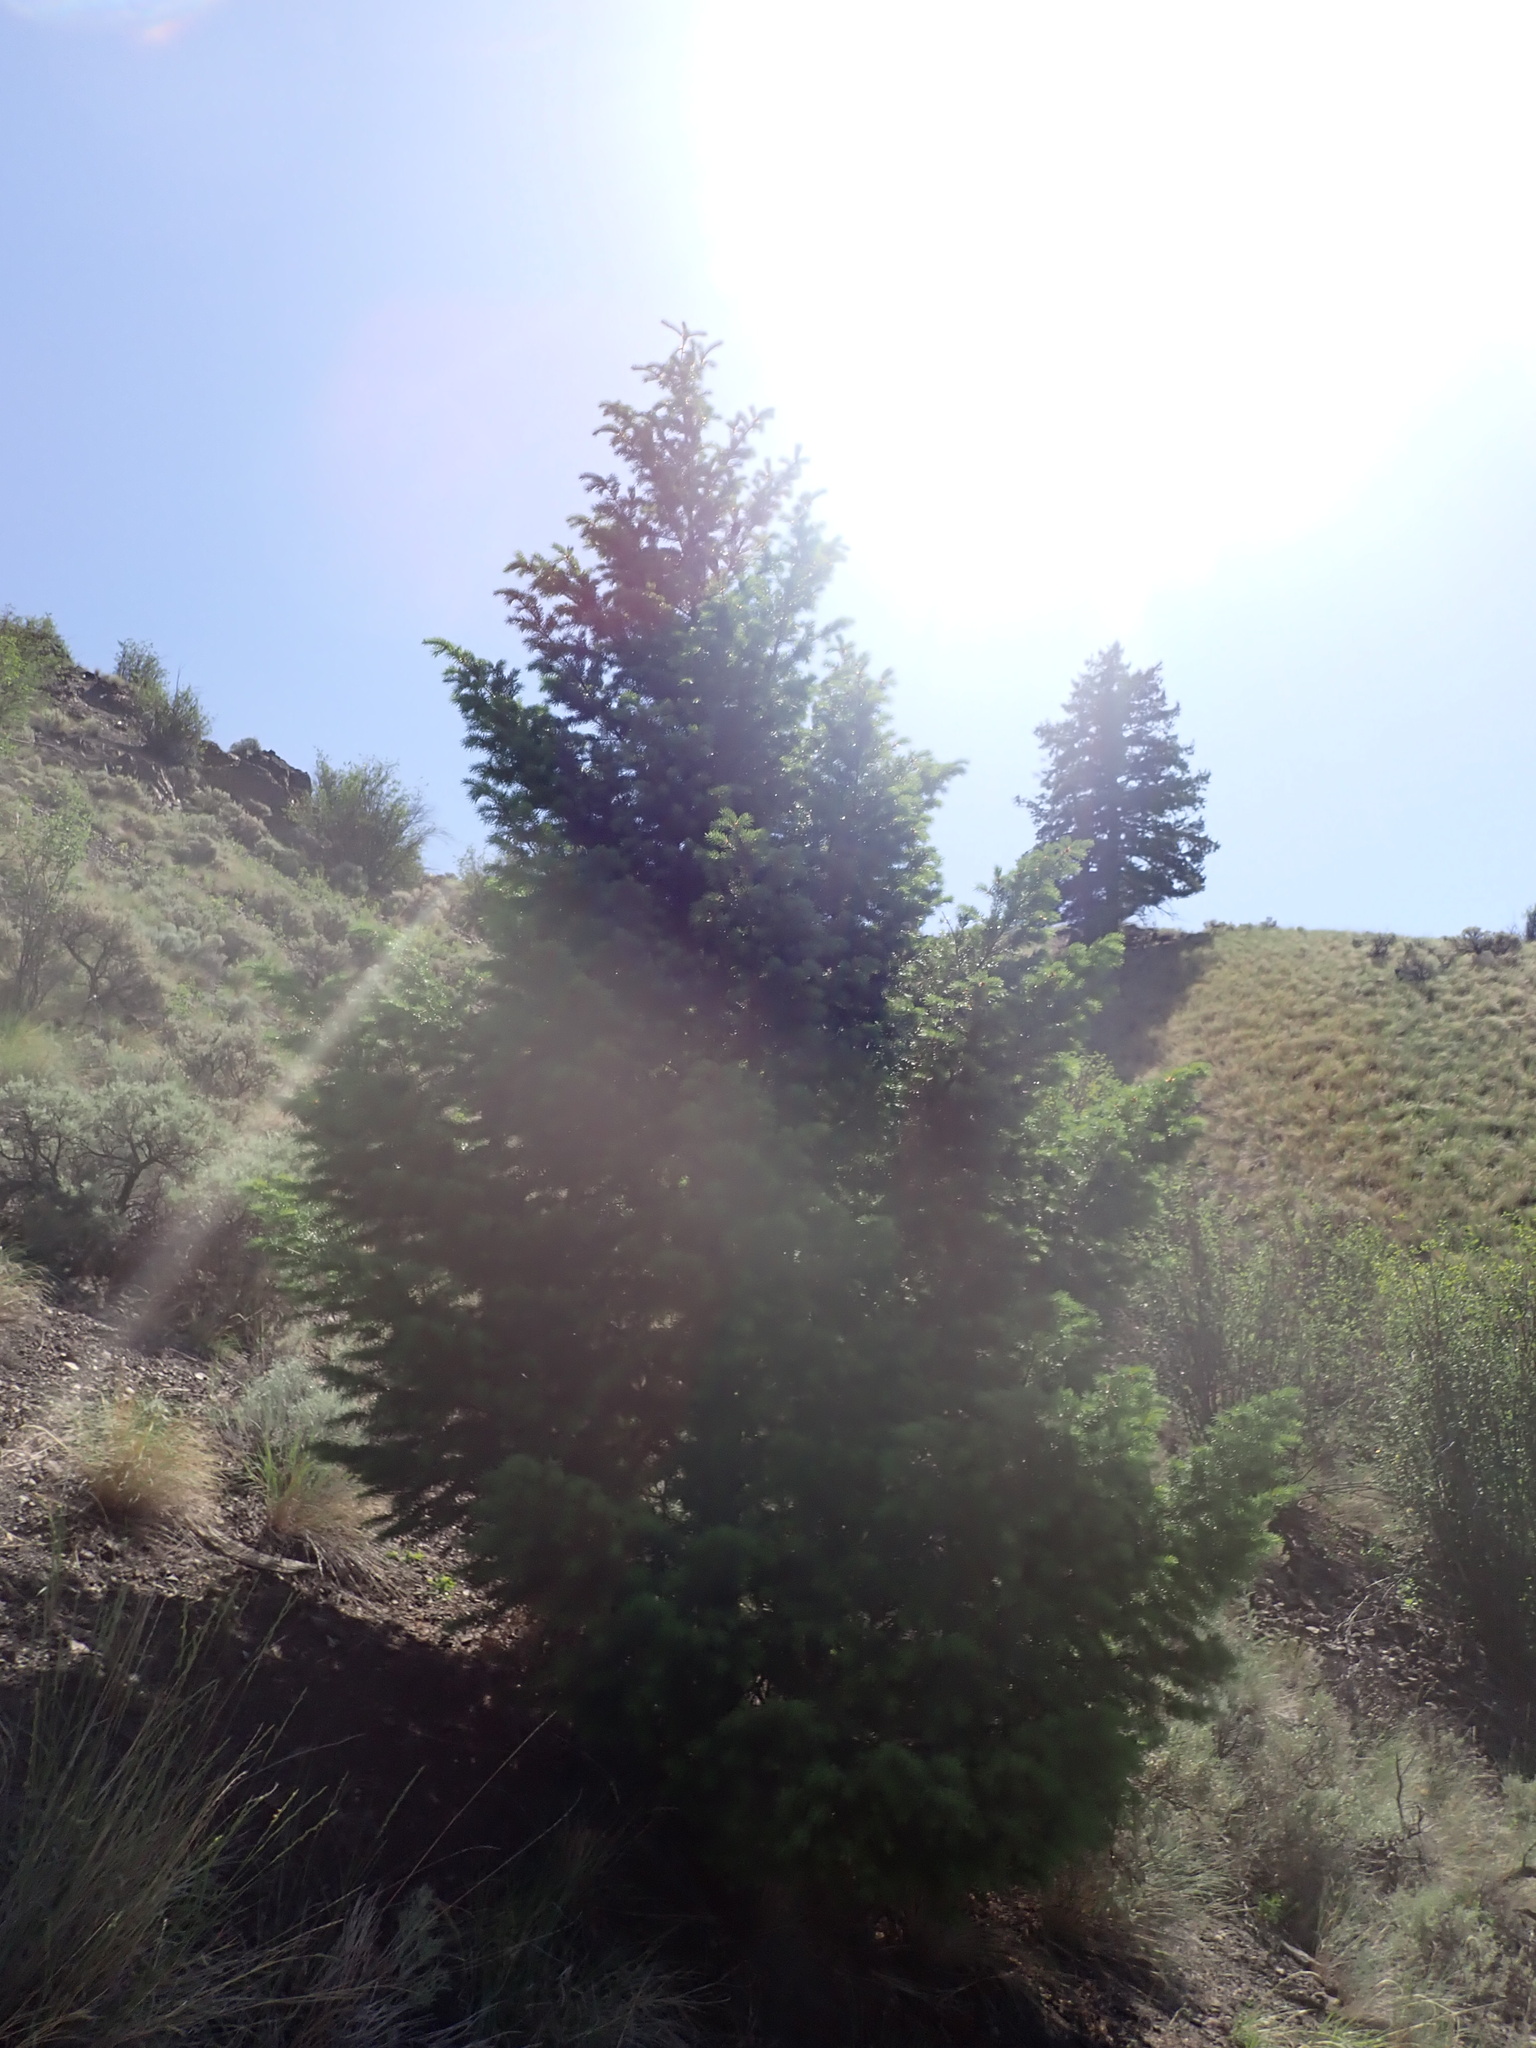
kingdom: Plantae
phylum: Tracheophyta
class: Pinopsida
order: Pinales
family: Pinaceae
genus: Pseudotsuga
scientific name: Pseudotsuga menziesii
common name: Douglas fir
